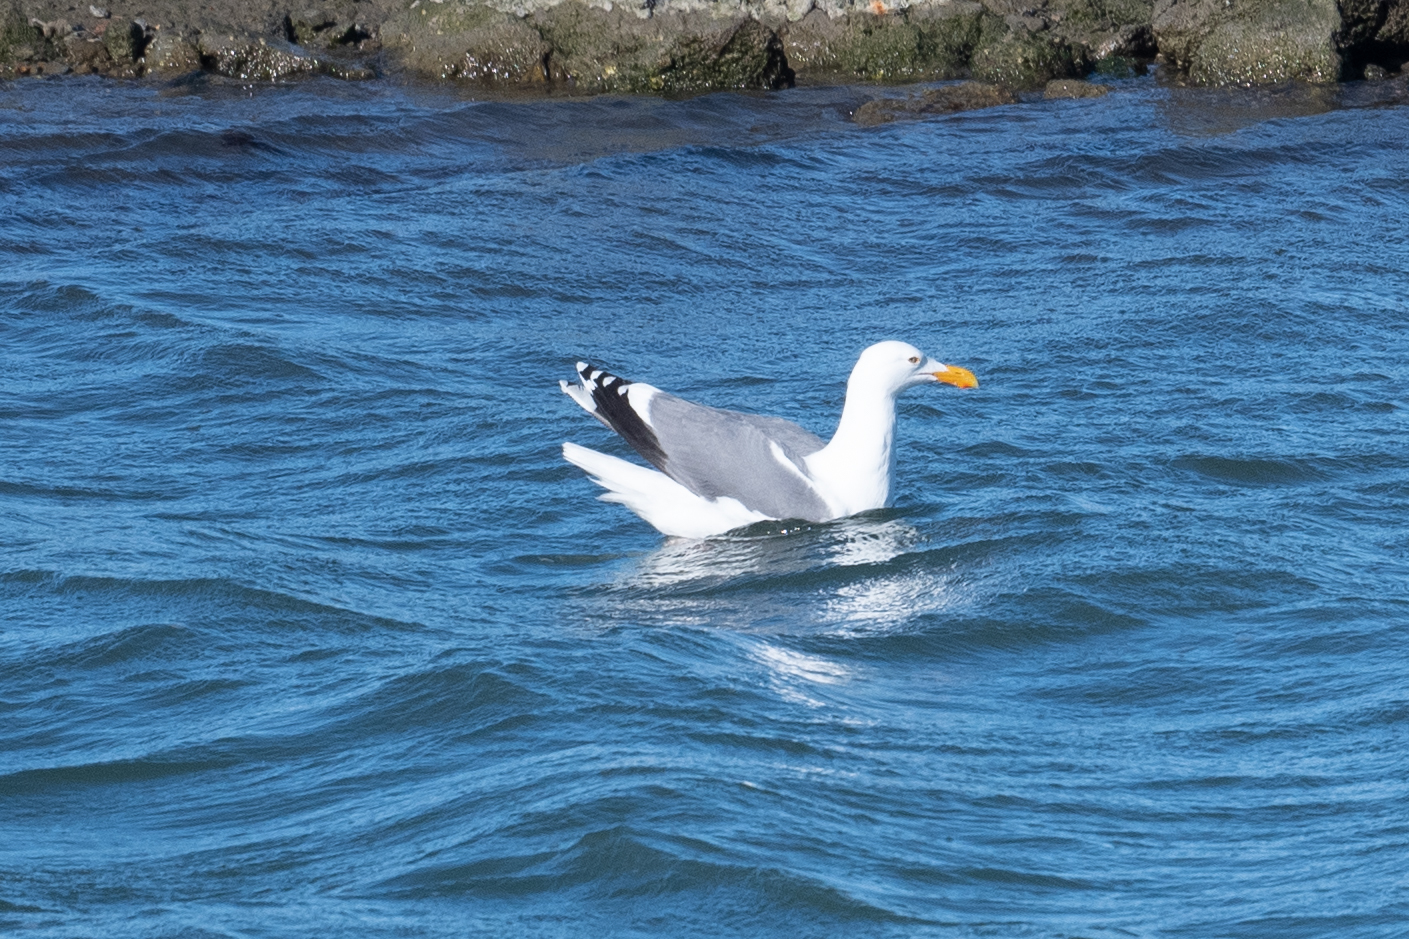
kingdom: Animalia
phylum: Chordata
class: Aves
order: Charadriiformes
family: Laridae
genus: Larus
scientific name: Larus occidentalis
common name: Western gull
